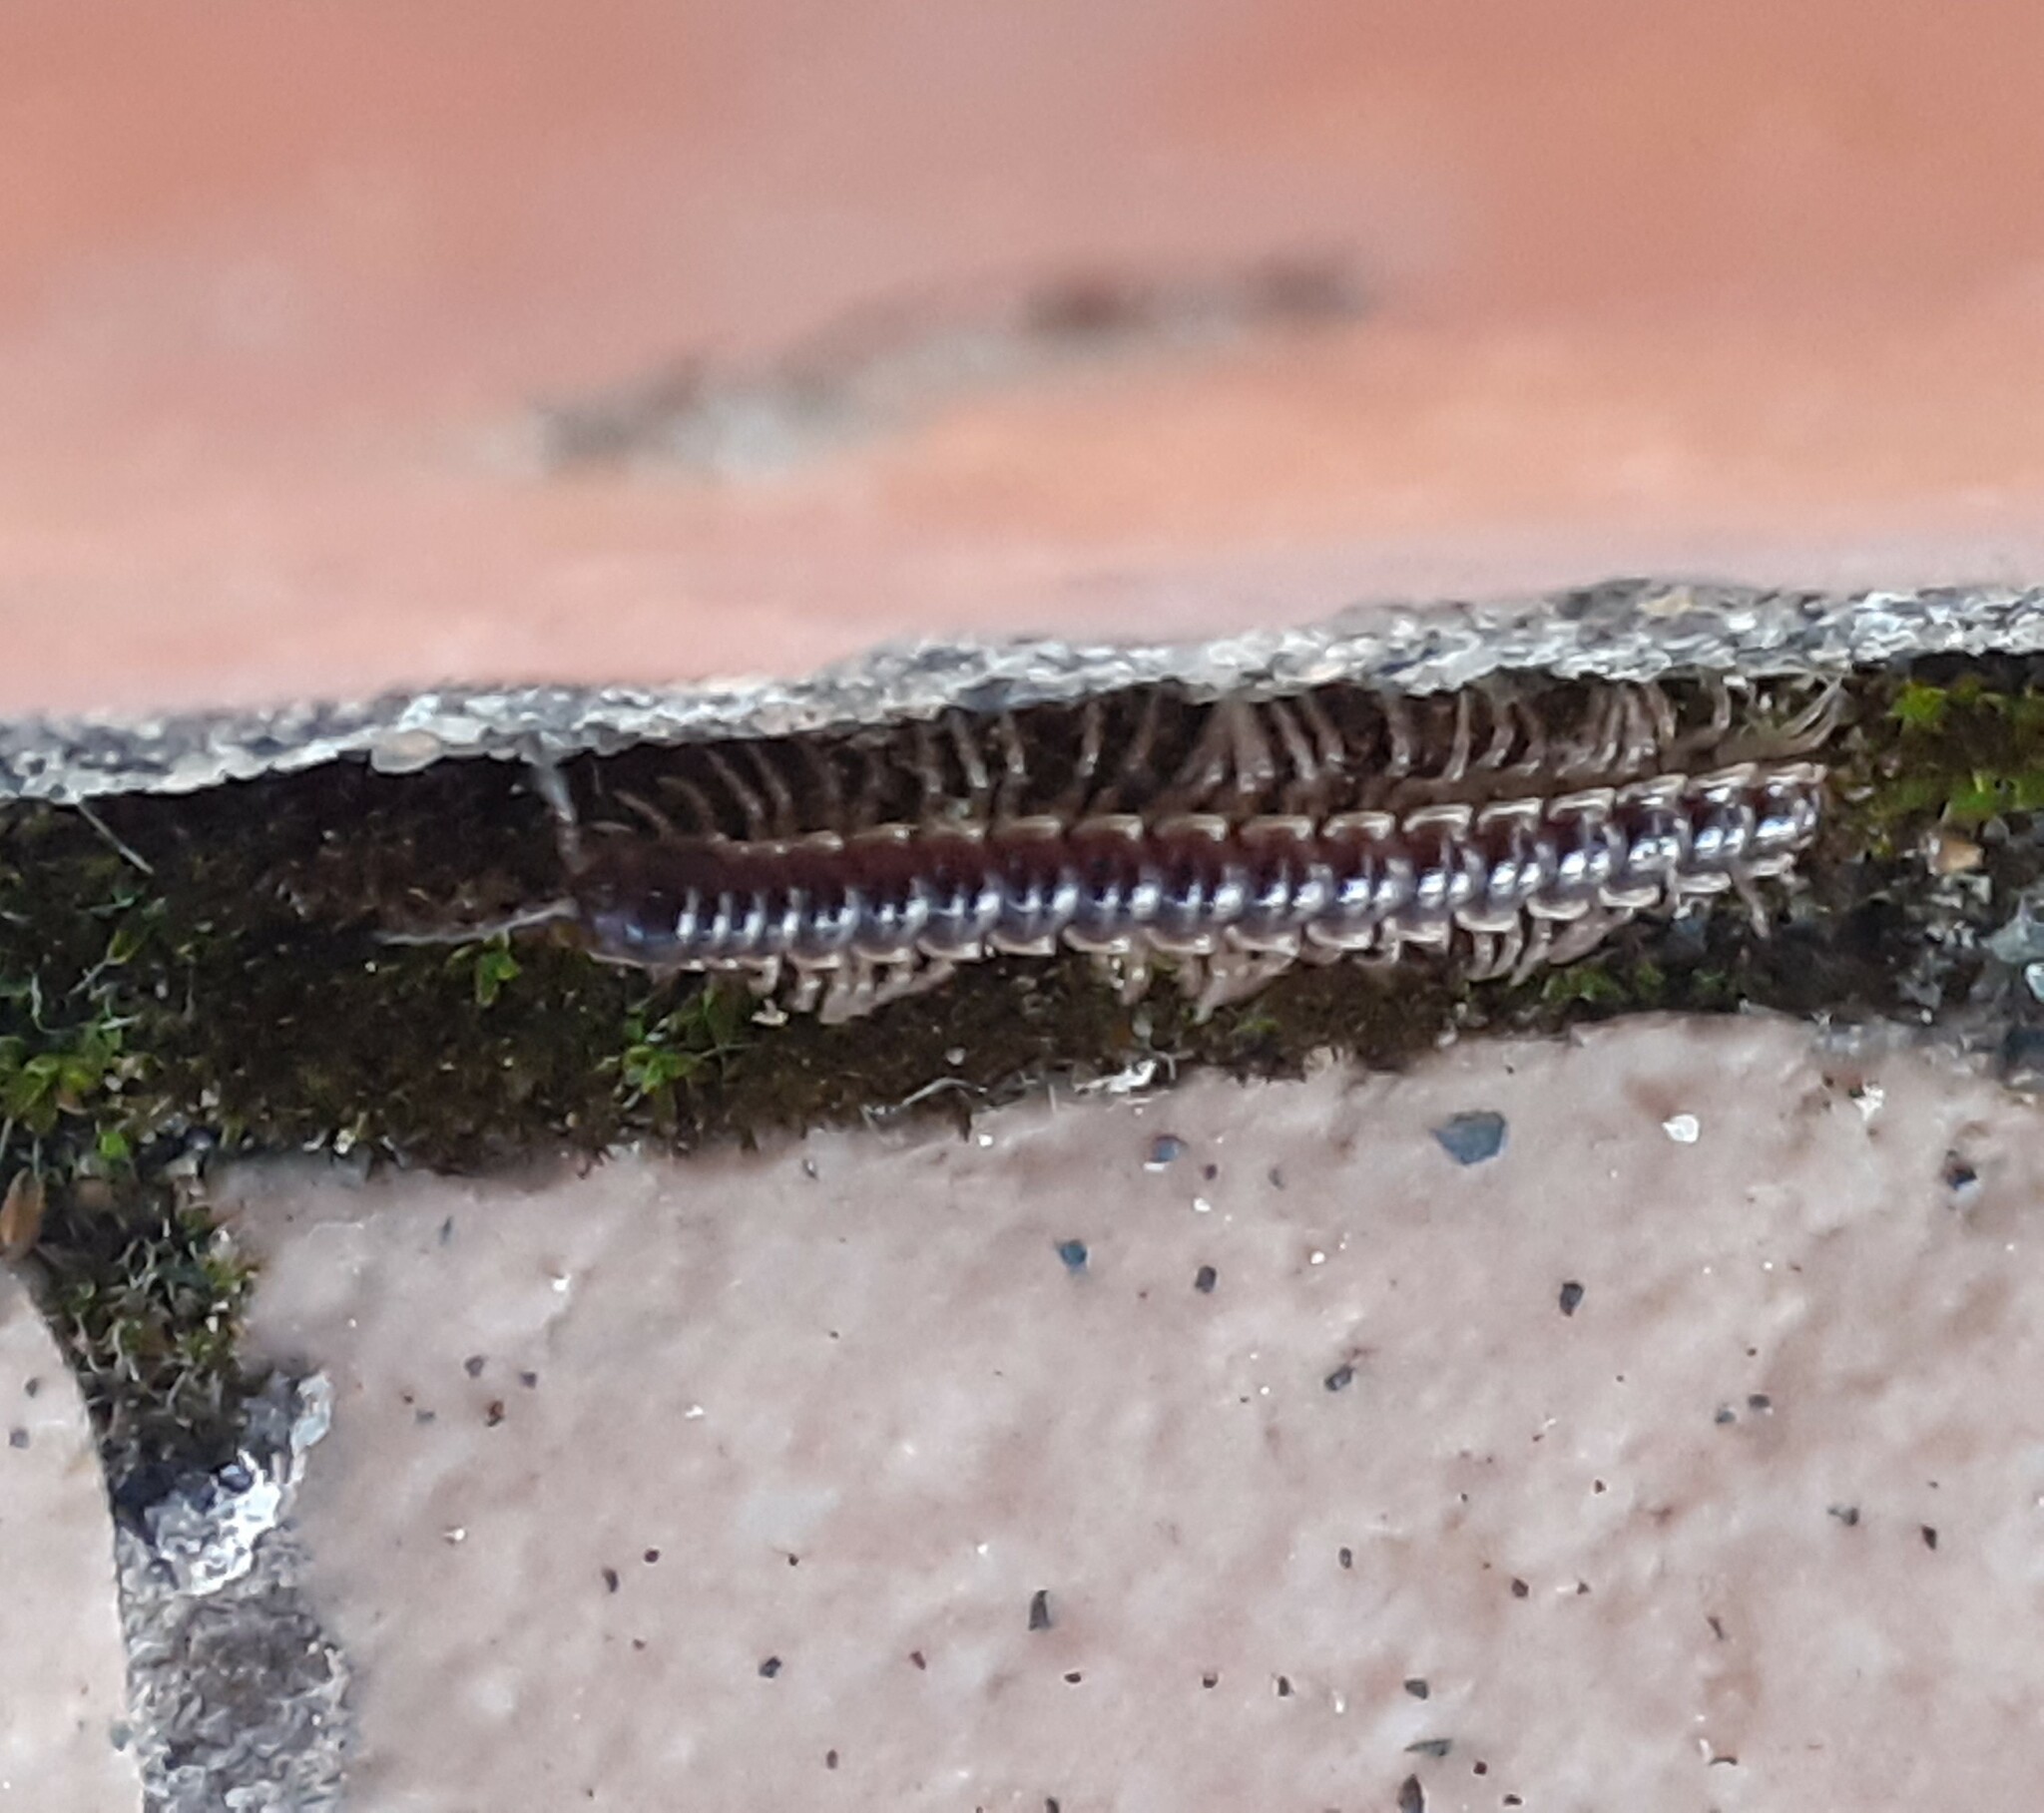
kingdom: Animalia
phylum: Arthropoda
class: Diplopoda
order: Polydesmida
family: Paradoxosomatidae
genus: Oxidus
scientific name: Oxidus gracilis
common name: Greenhouse millipede
